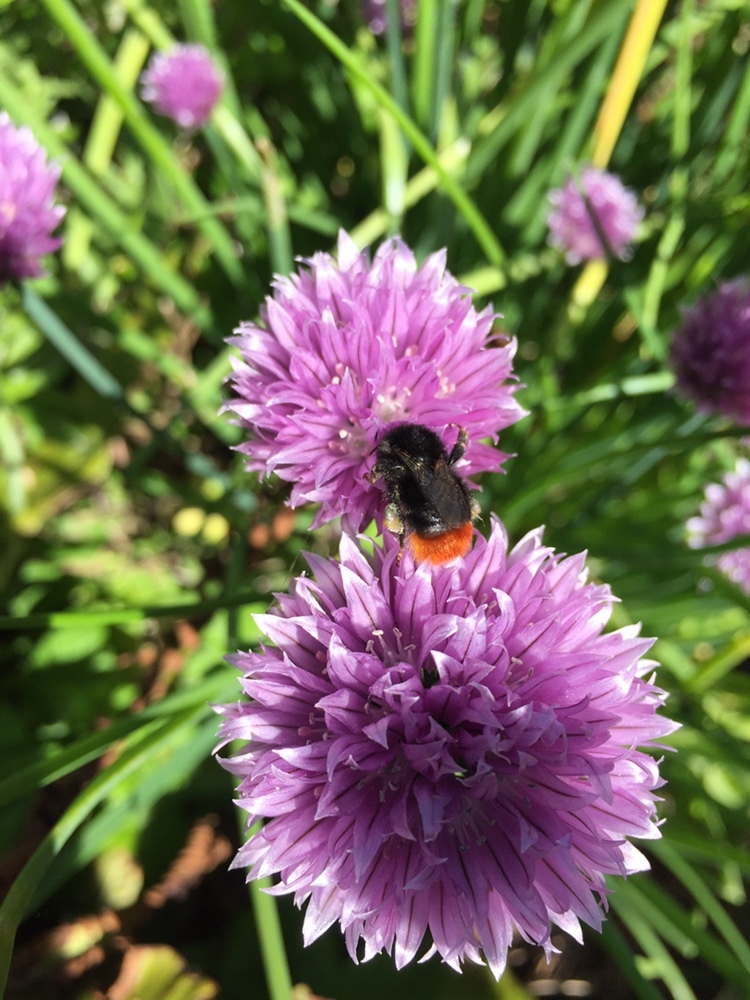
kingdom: Animalia
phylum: Arthropoda
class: Insecta
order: Hymenoptera
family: Apidae
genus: Bombus
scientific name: Bombus lapidarius
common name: Large red-tailed humble-bee
